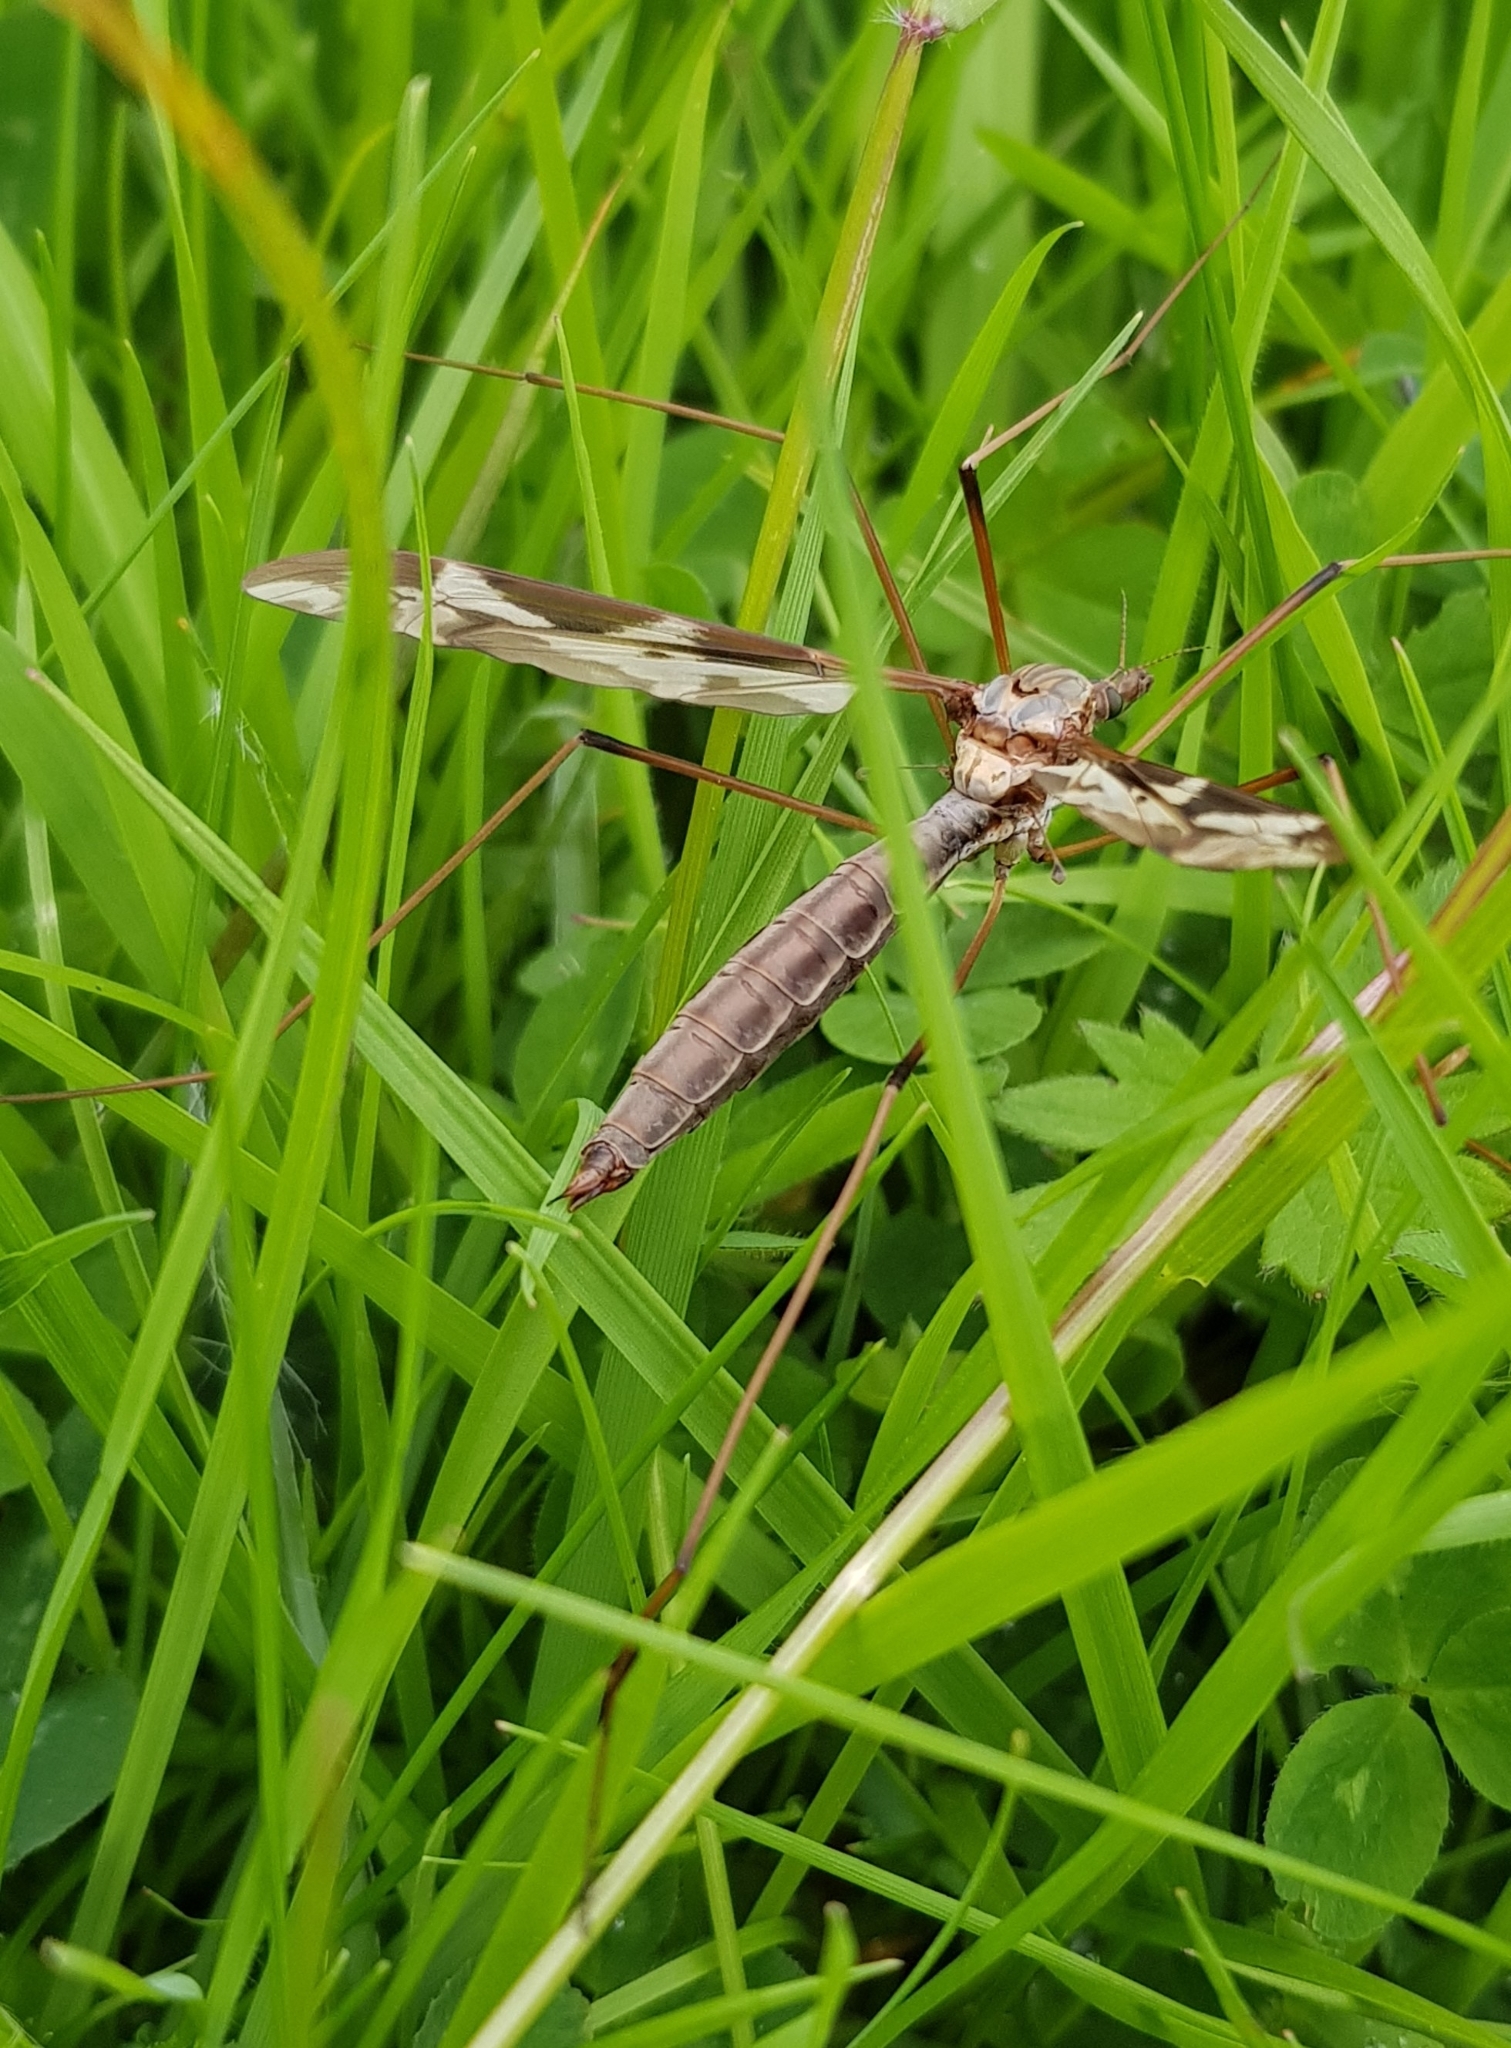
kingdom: Animalia
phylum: Arthropoda
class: Insecta
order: Diptera
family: Tipulidae
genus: Tipula
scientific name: Tipula maxima
